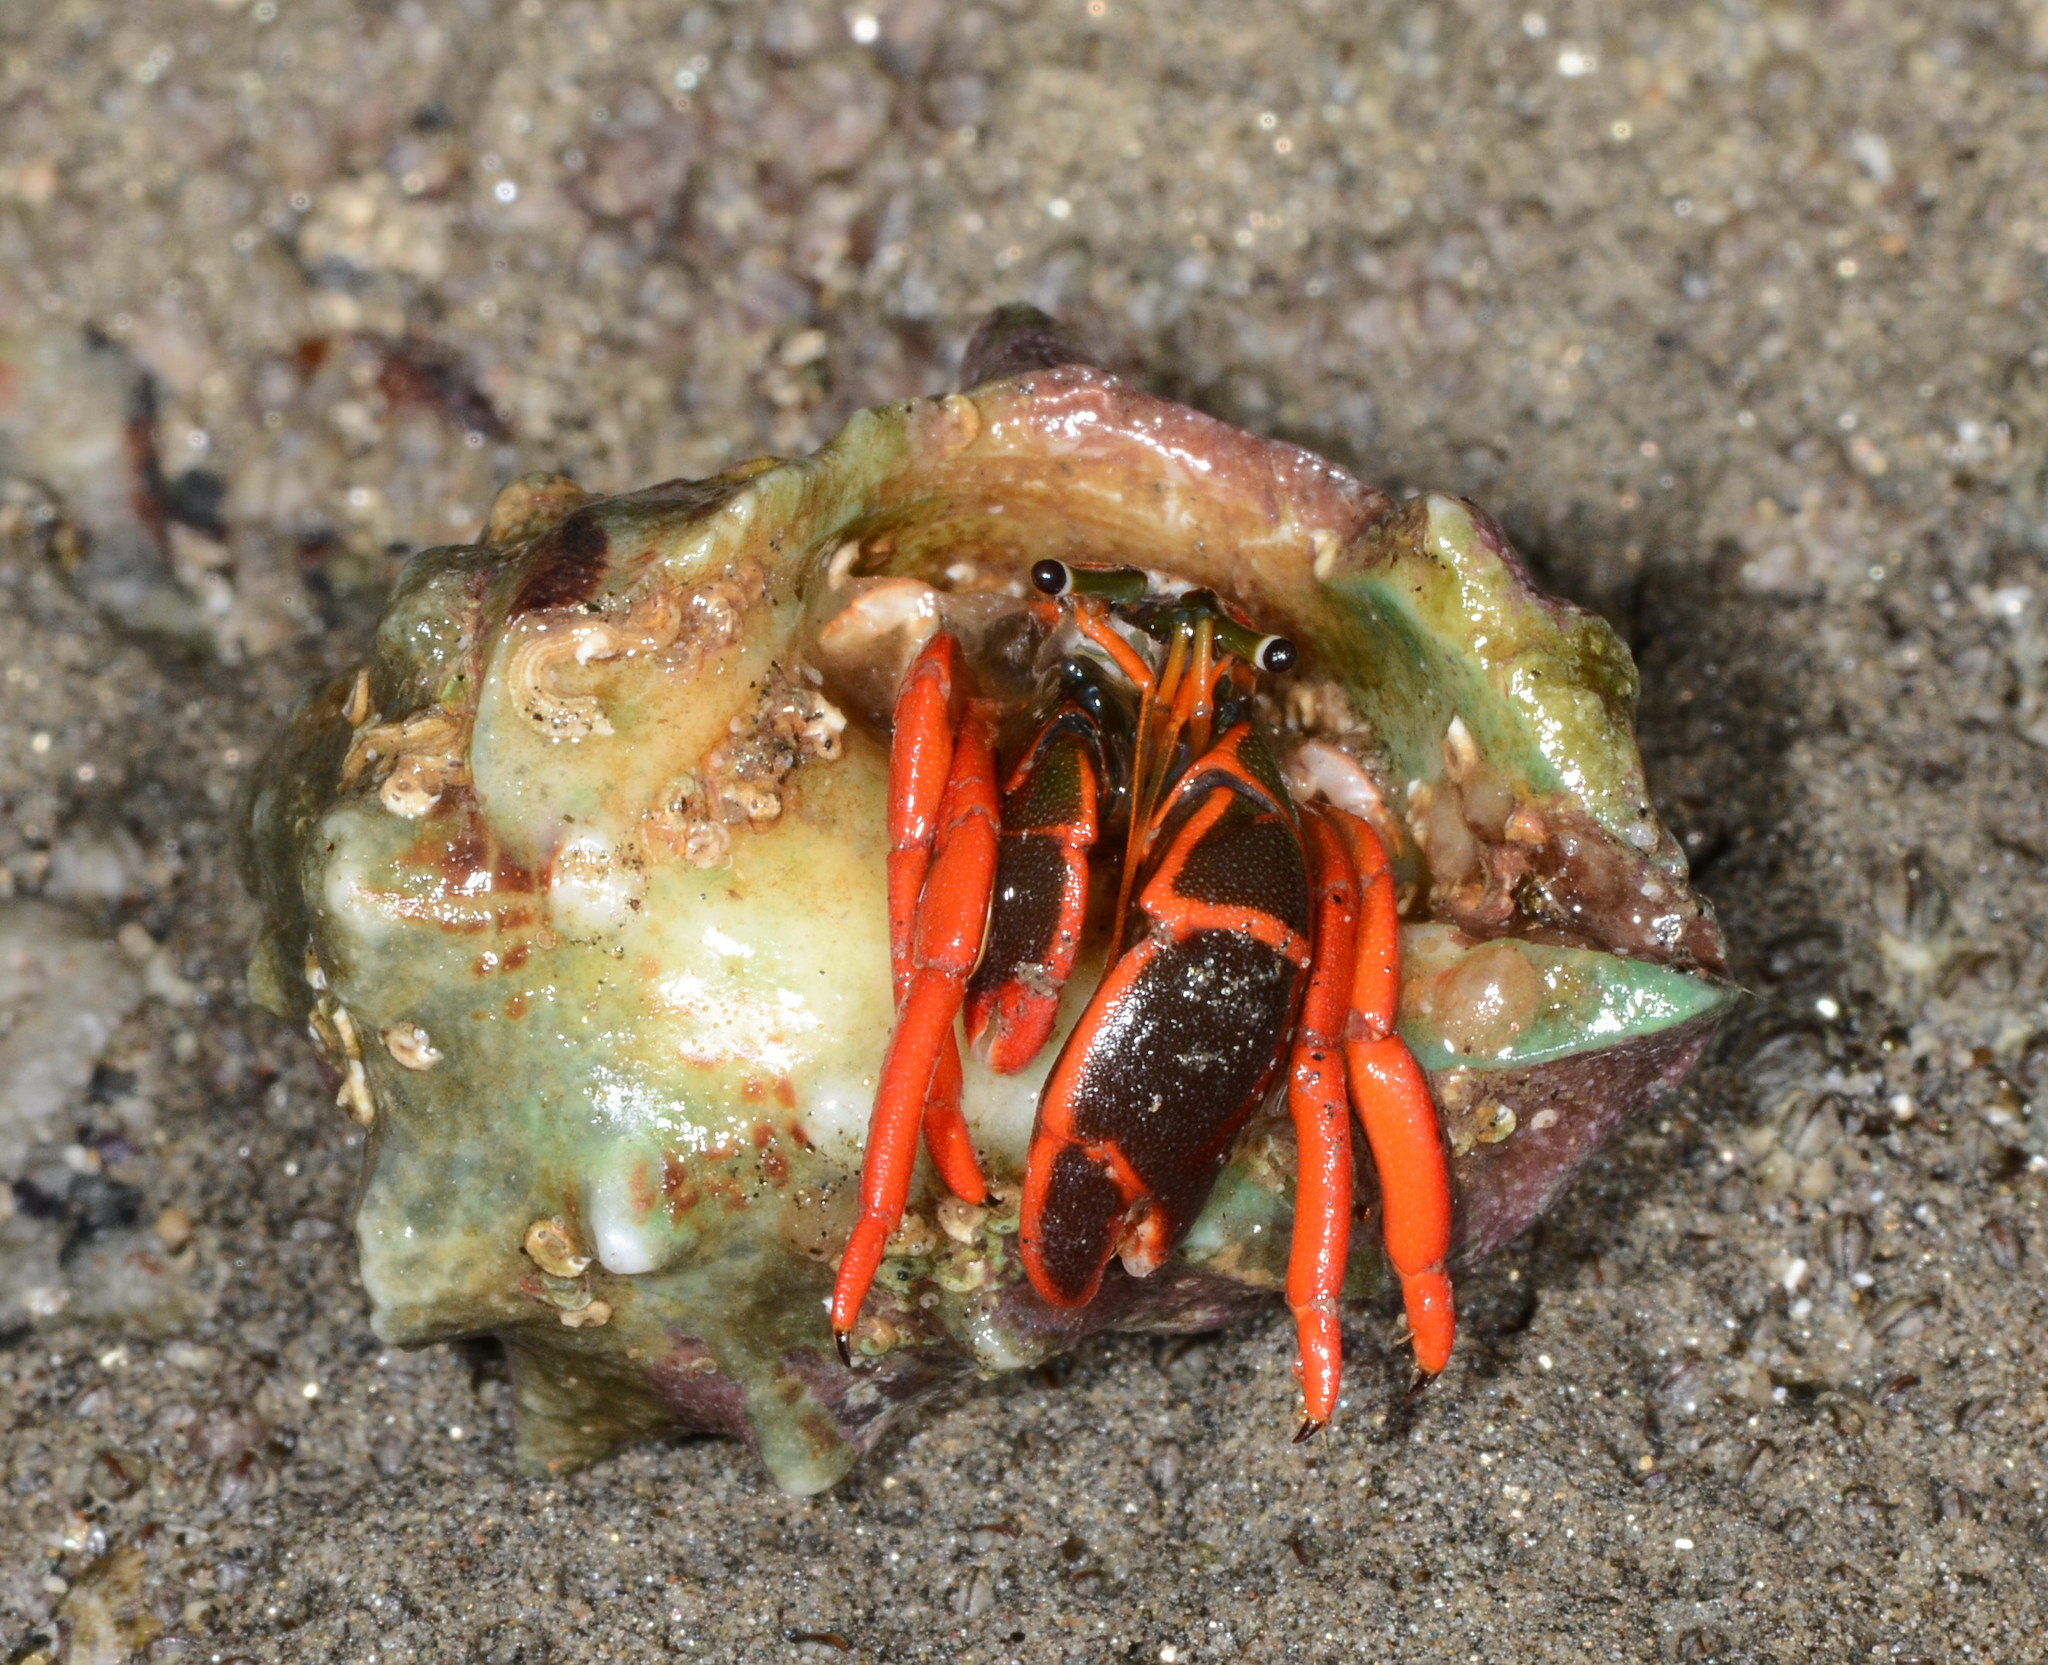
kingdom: Animalia
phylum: Arthropoda
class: Malacostraca
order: Decapoda
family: Diogenidae
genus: Calcinus
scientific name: Calcinus californiensis
